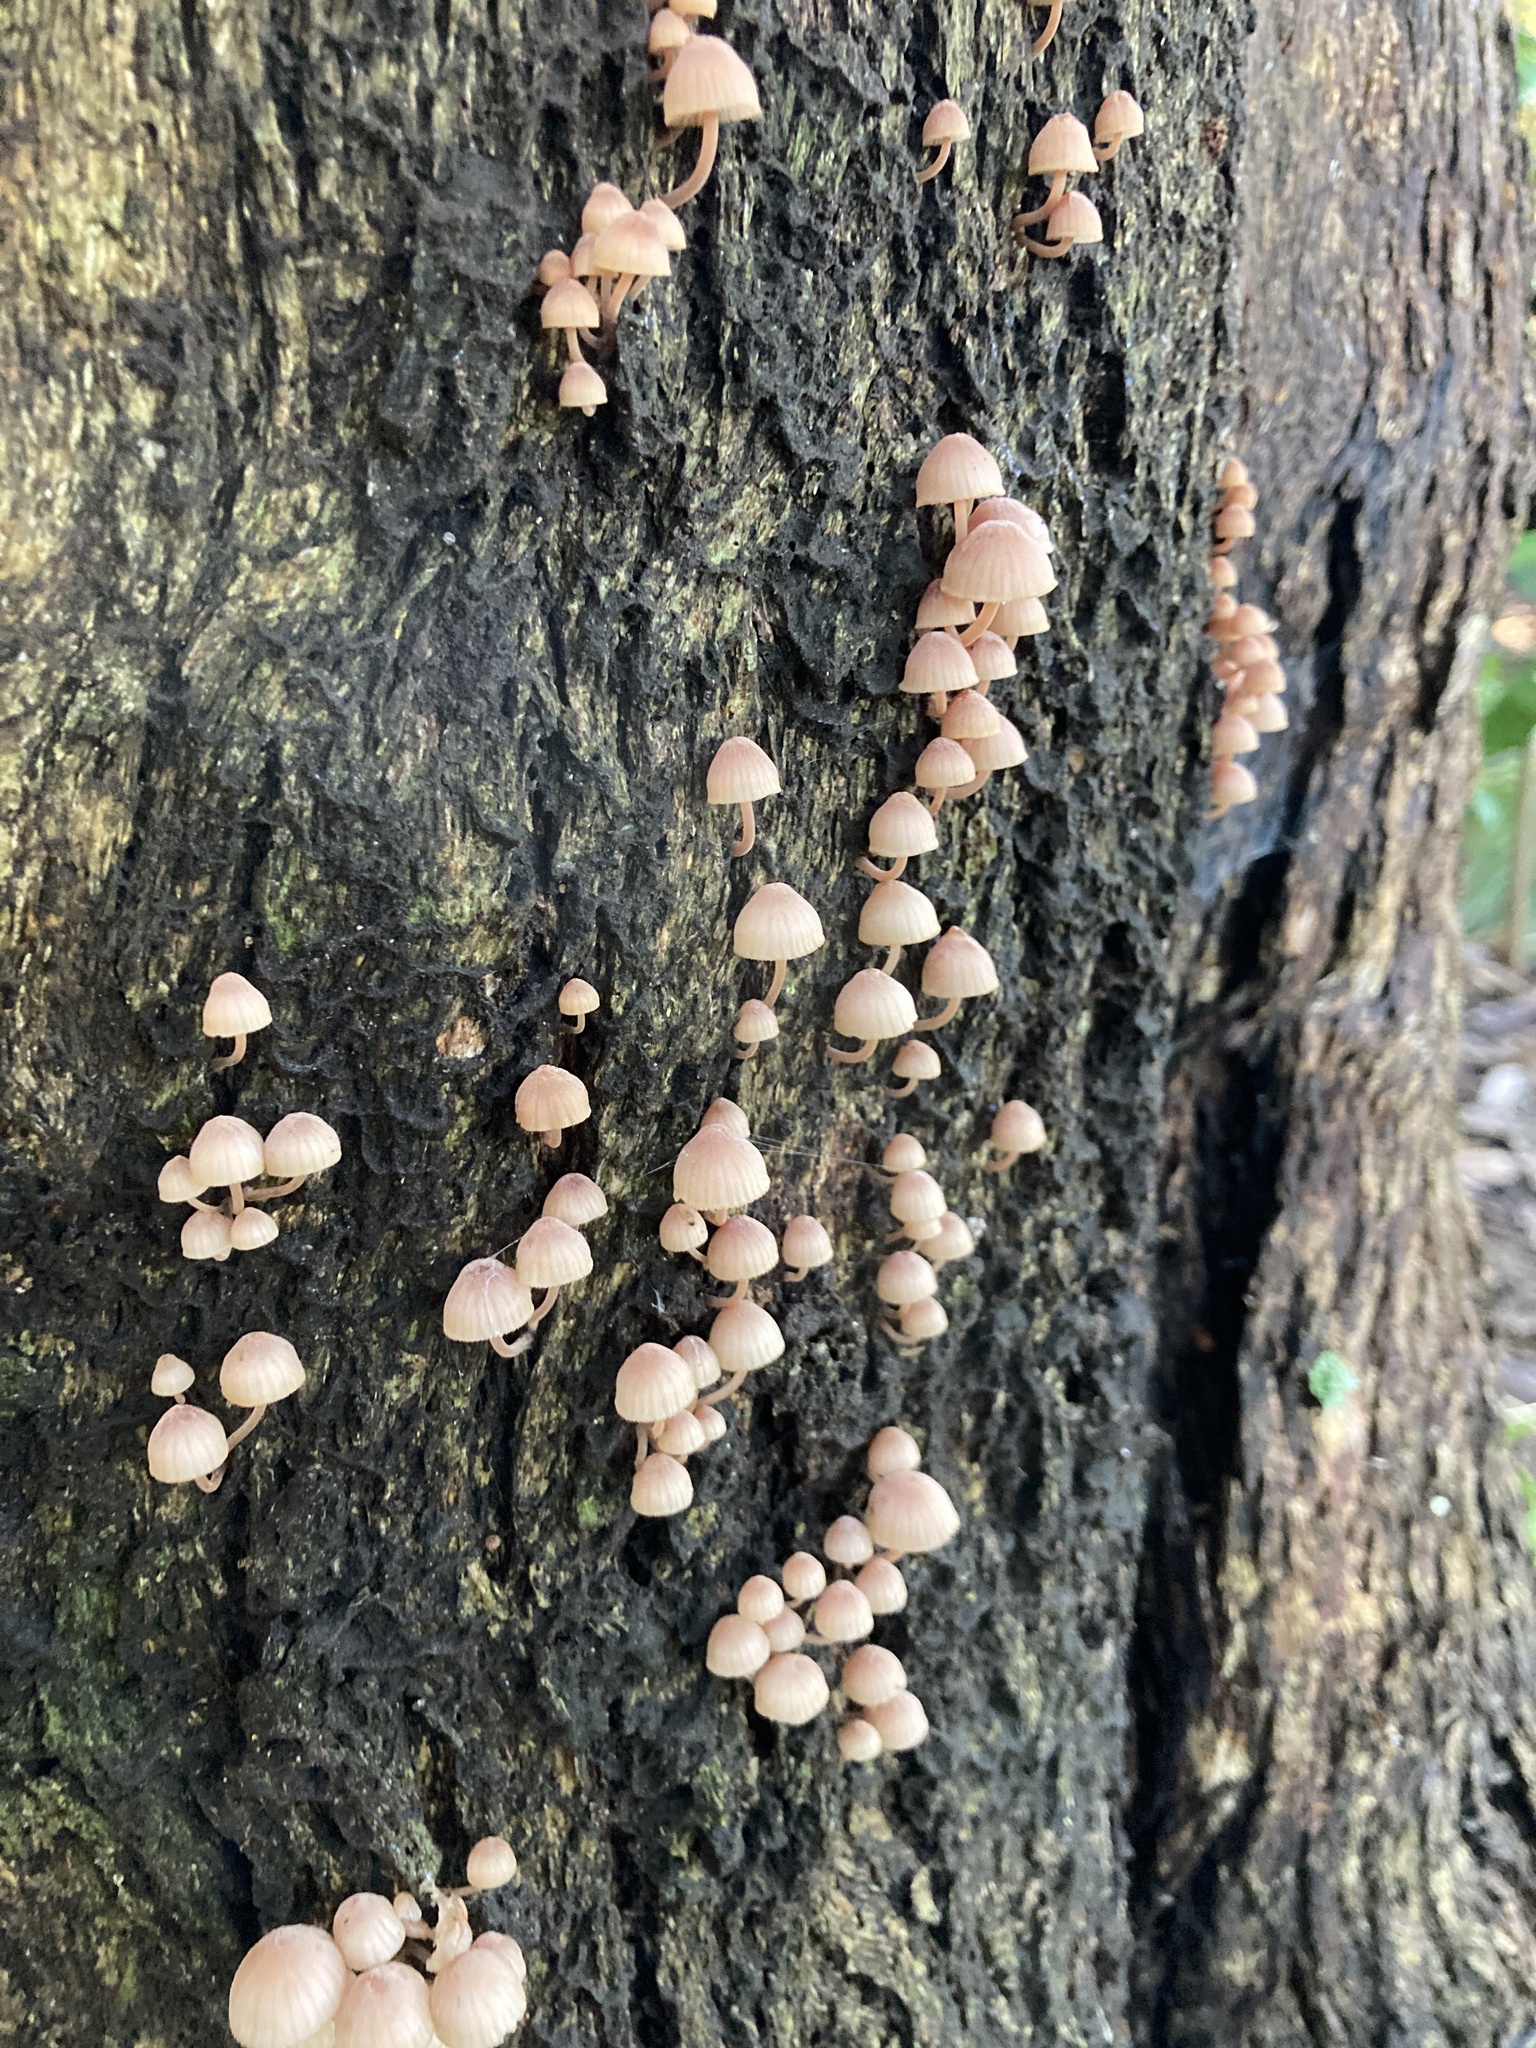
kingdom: Fungi
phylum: Basidiomycota
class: Agaricomycetes
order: Agaricales
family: Mycenaceae
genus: Mycena
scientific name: Mycena parsonsii
